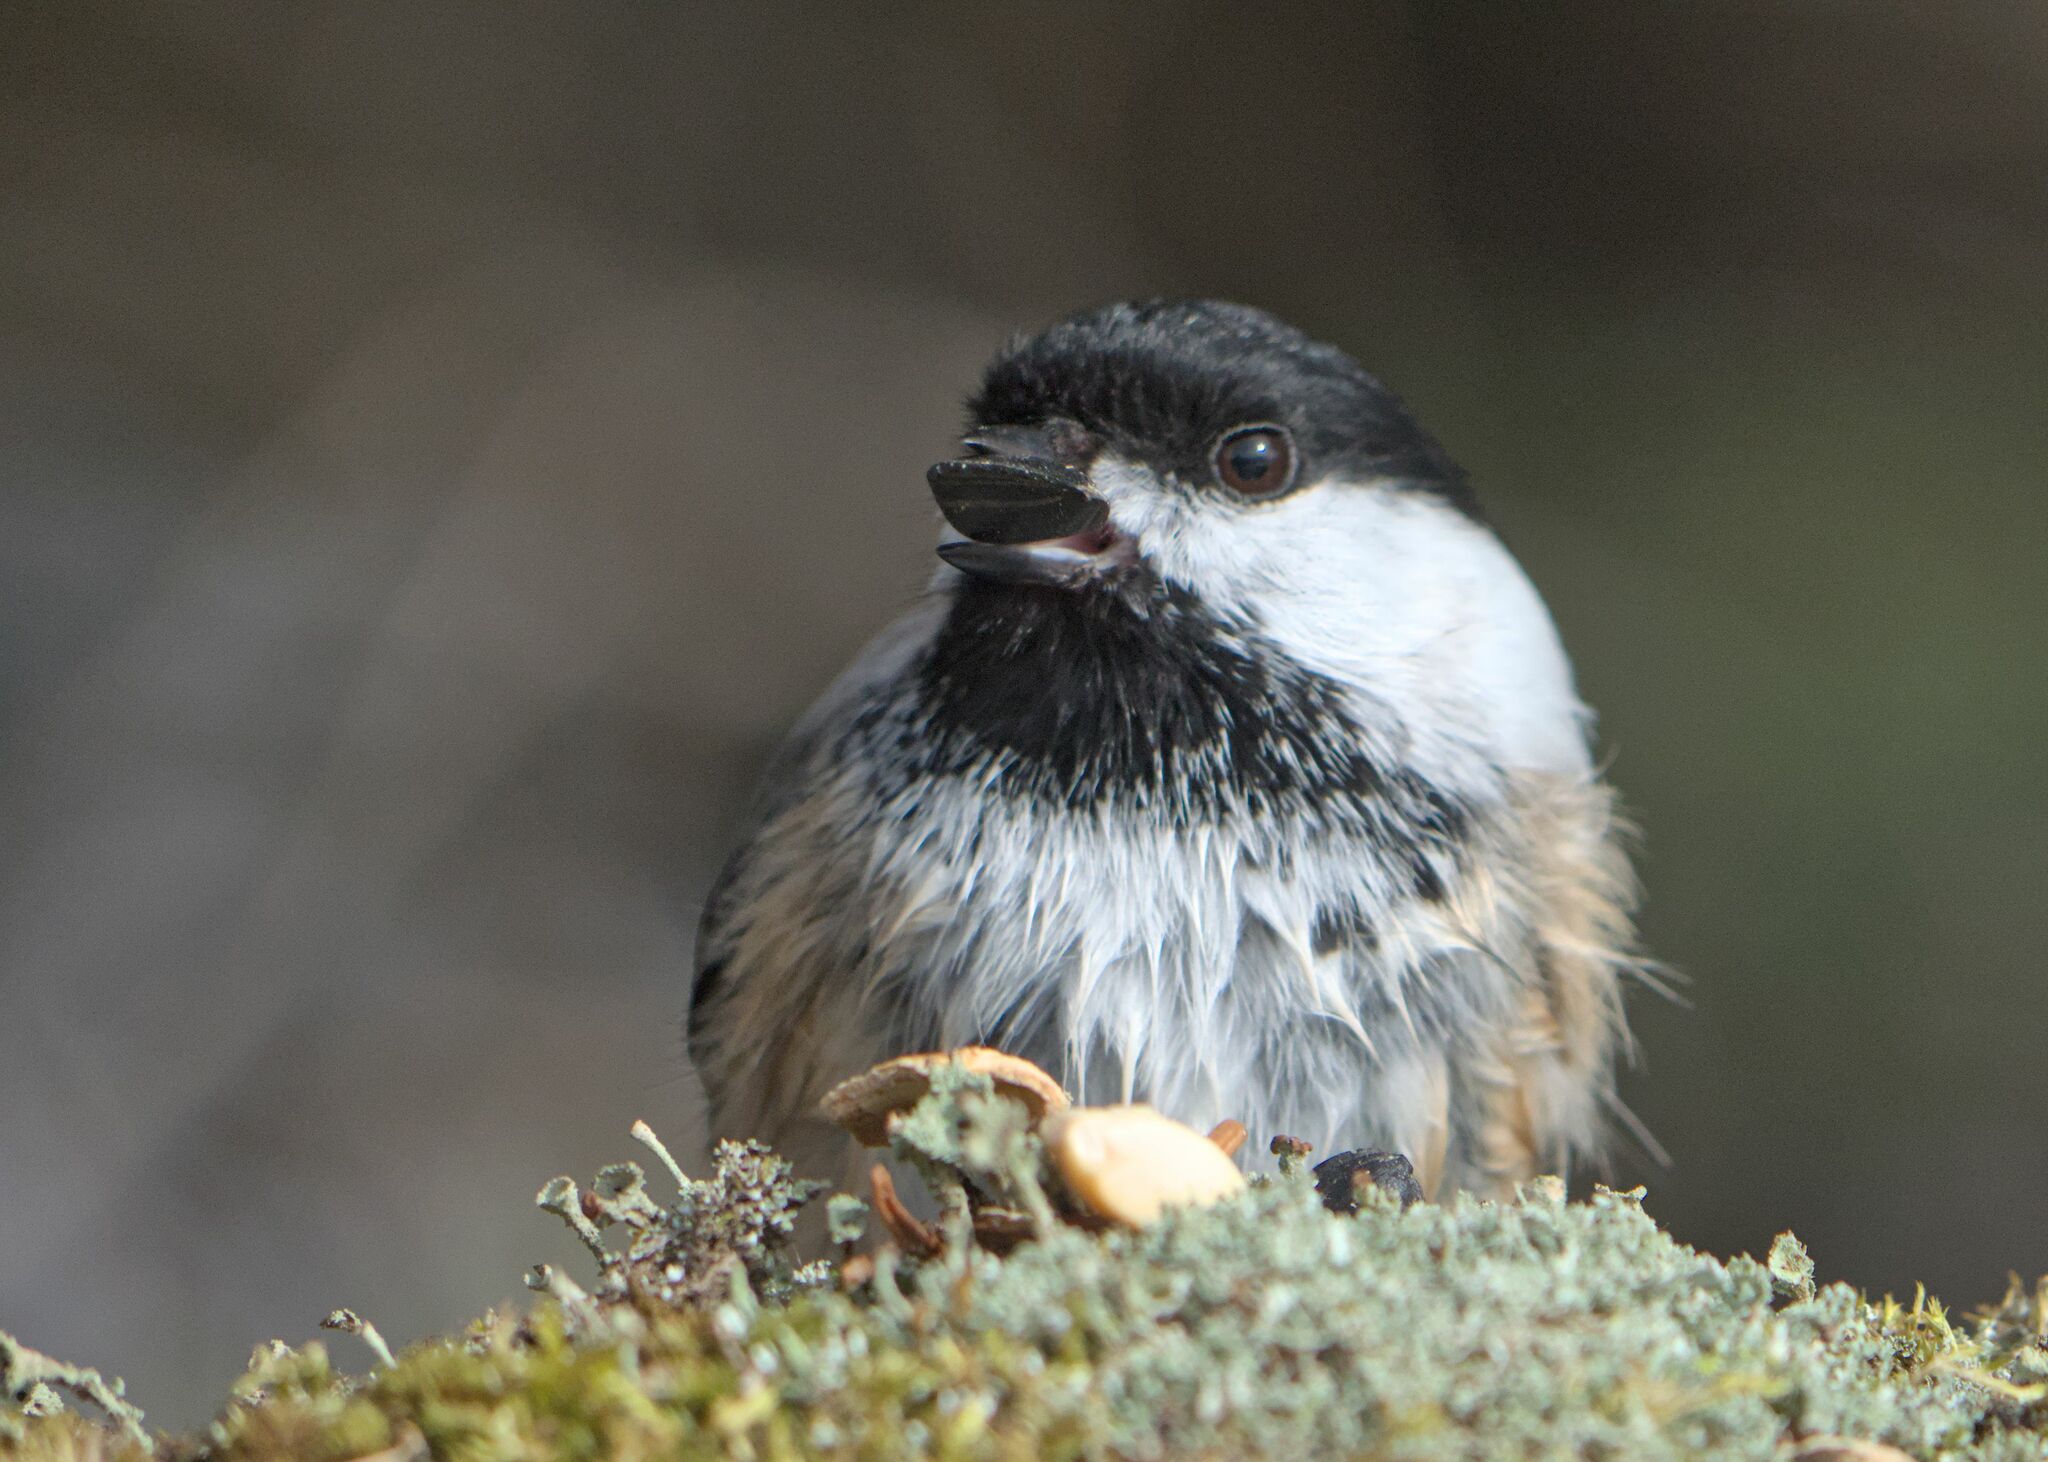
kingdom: Animalia
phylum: Chordata
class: Aves
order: Passeriformes
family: Paridae
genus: Poecile
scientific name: Poecile atricapillus
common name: Black-capped chickadee
